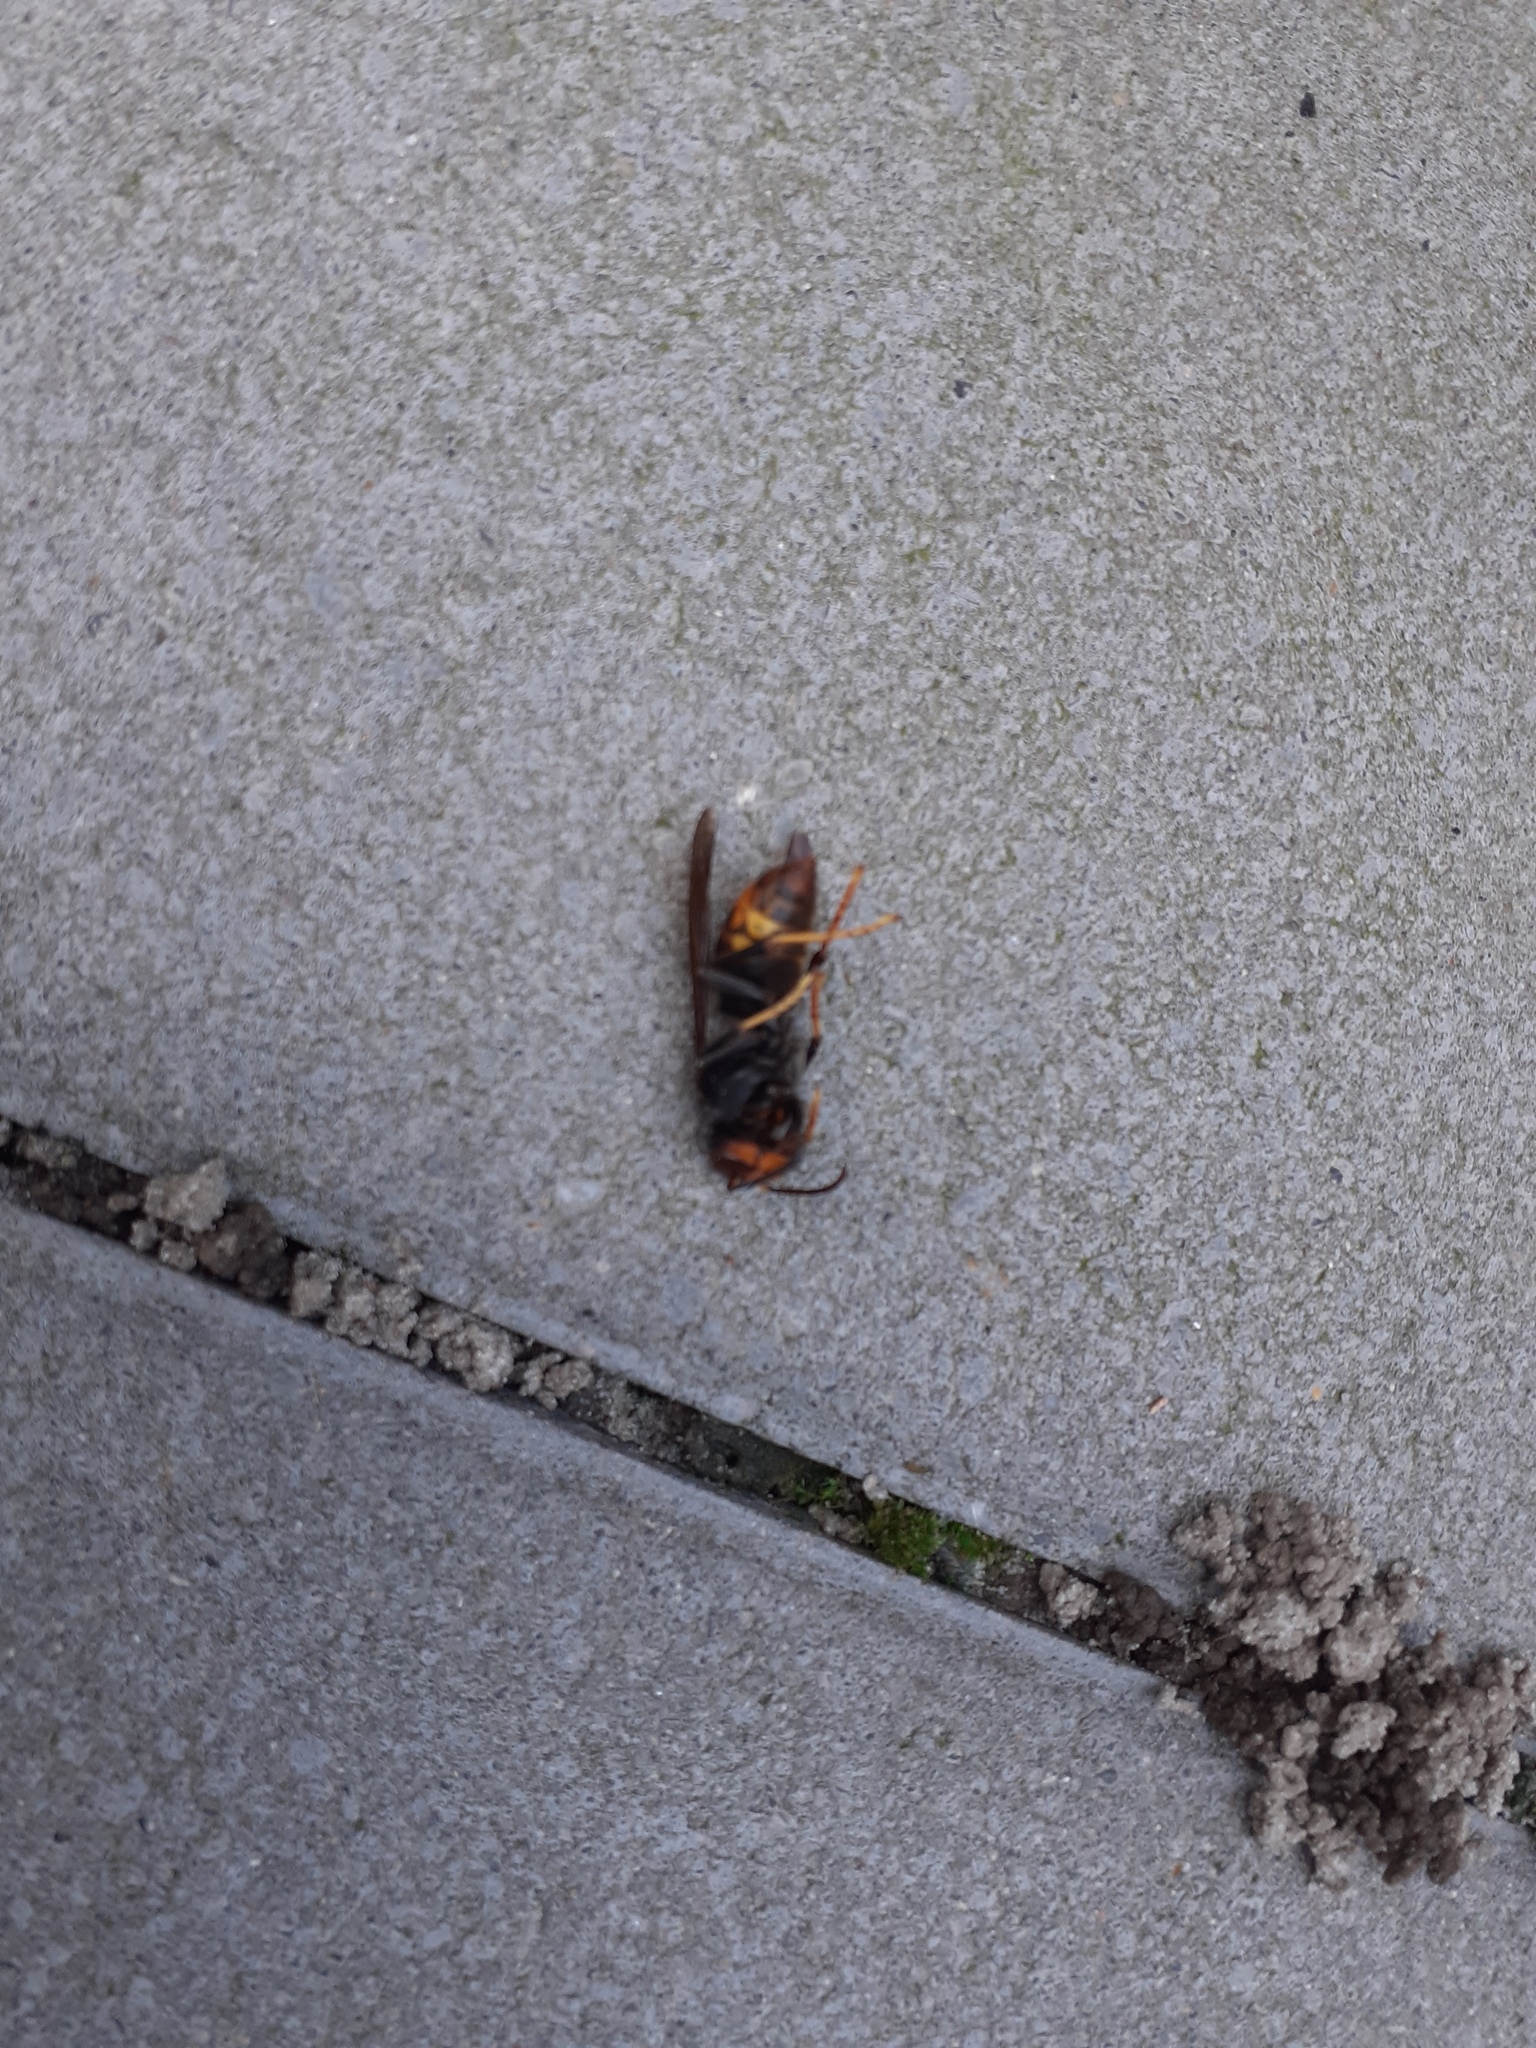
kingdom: Animalia
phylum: Arthropoda
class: Insecta
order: Hymenoptera
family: Vespidae
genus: Vespa
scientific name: Vespa velutina
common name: Asian hornet
